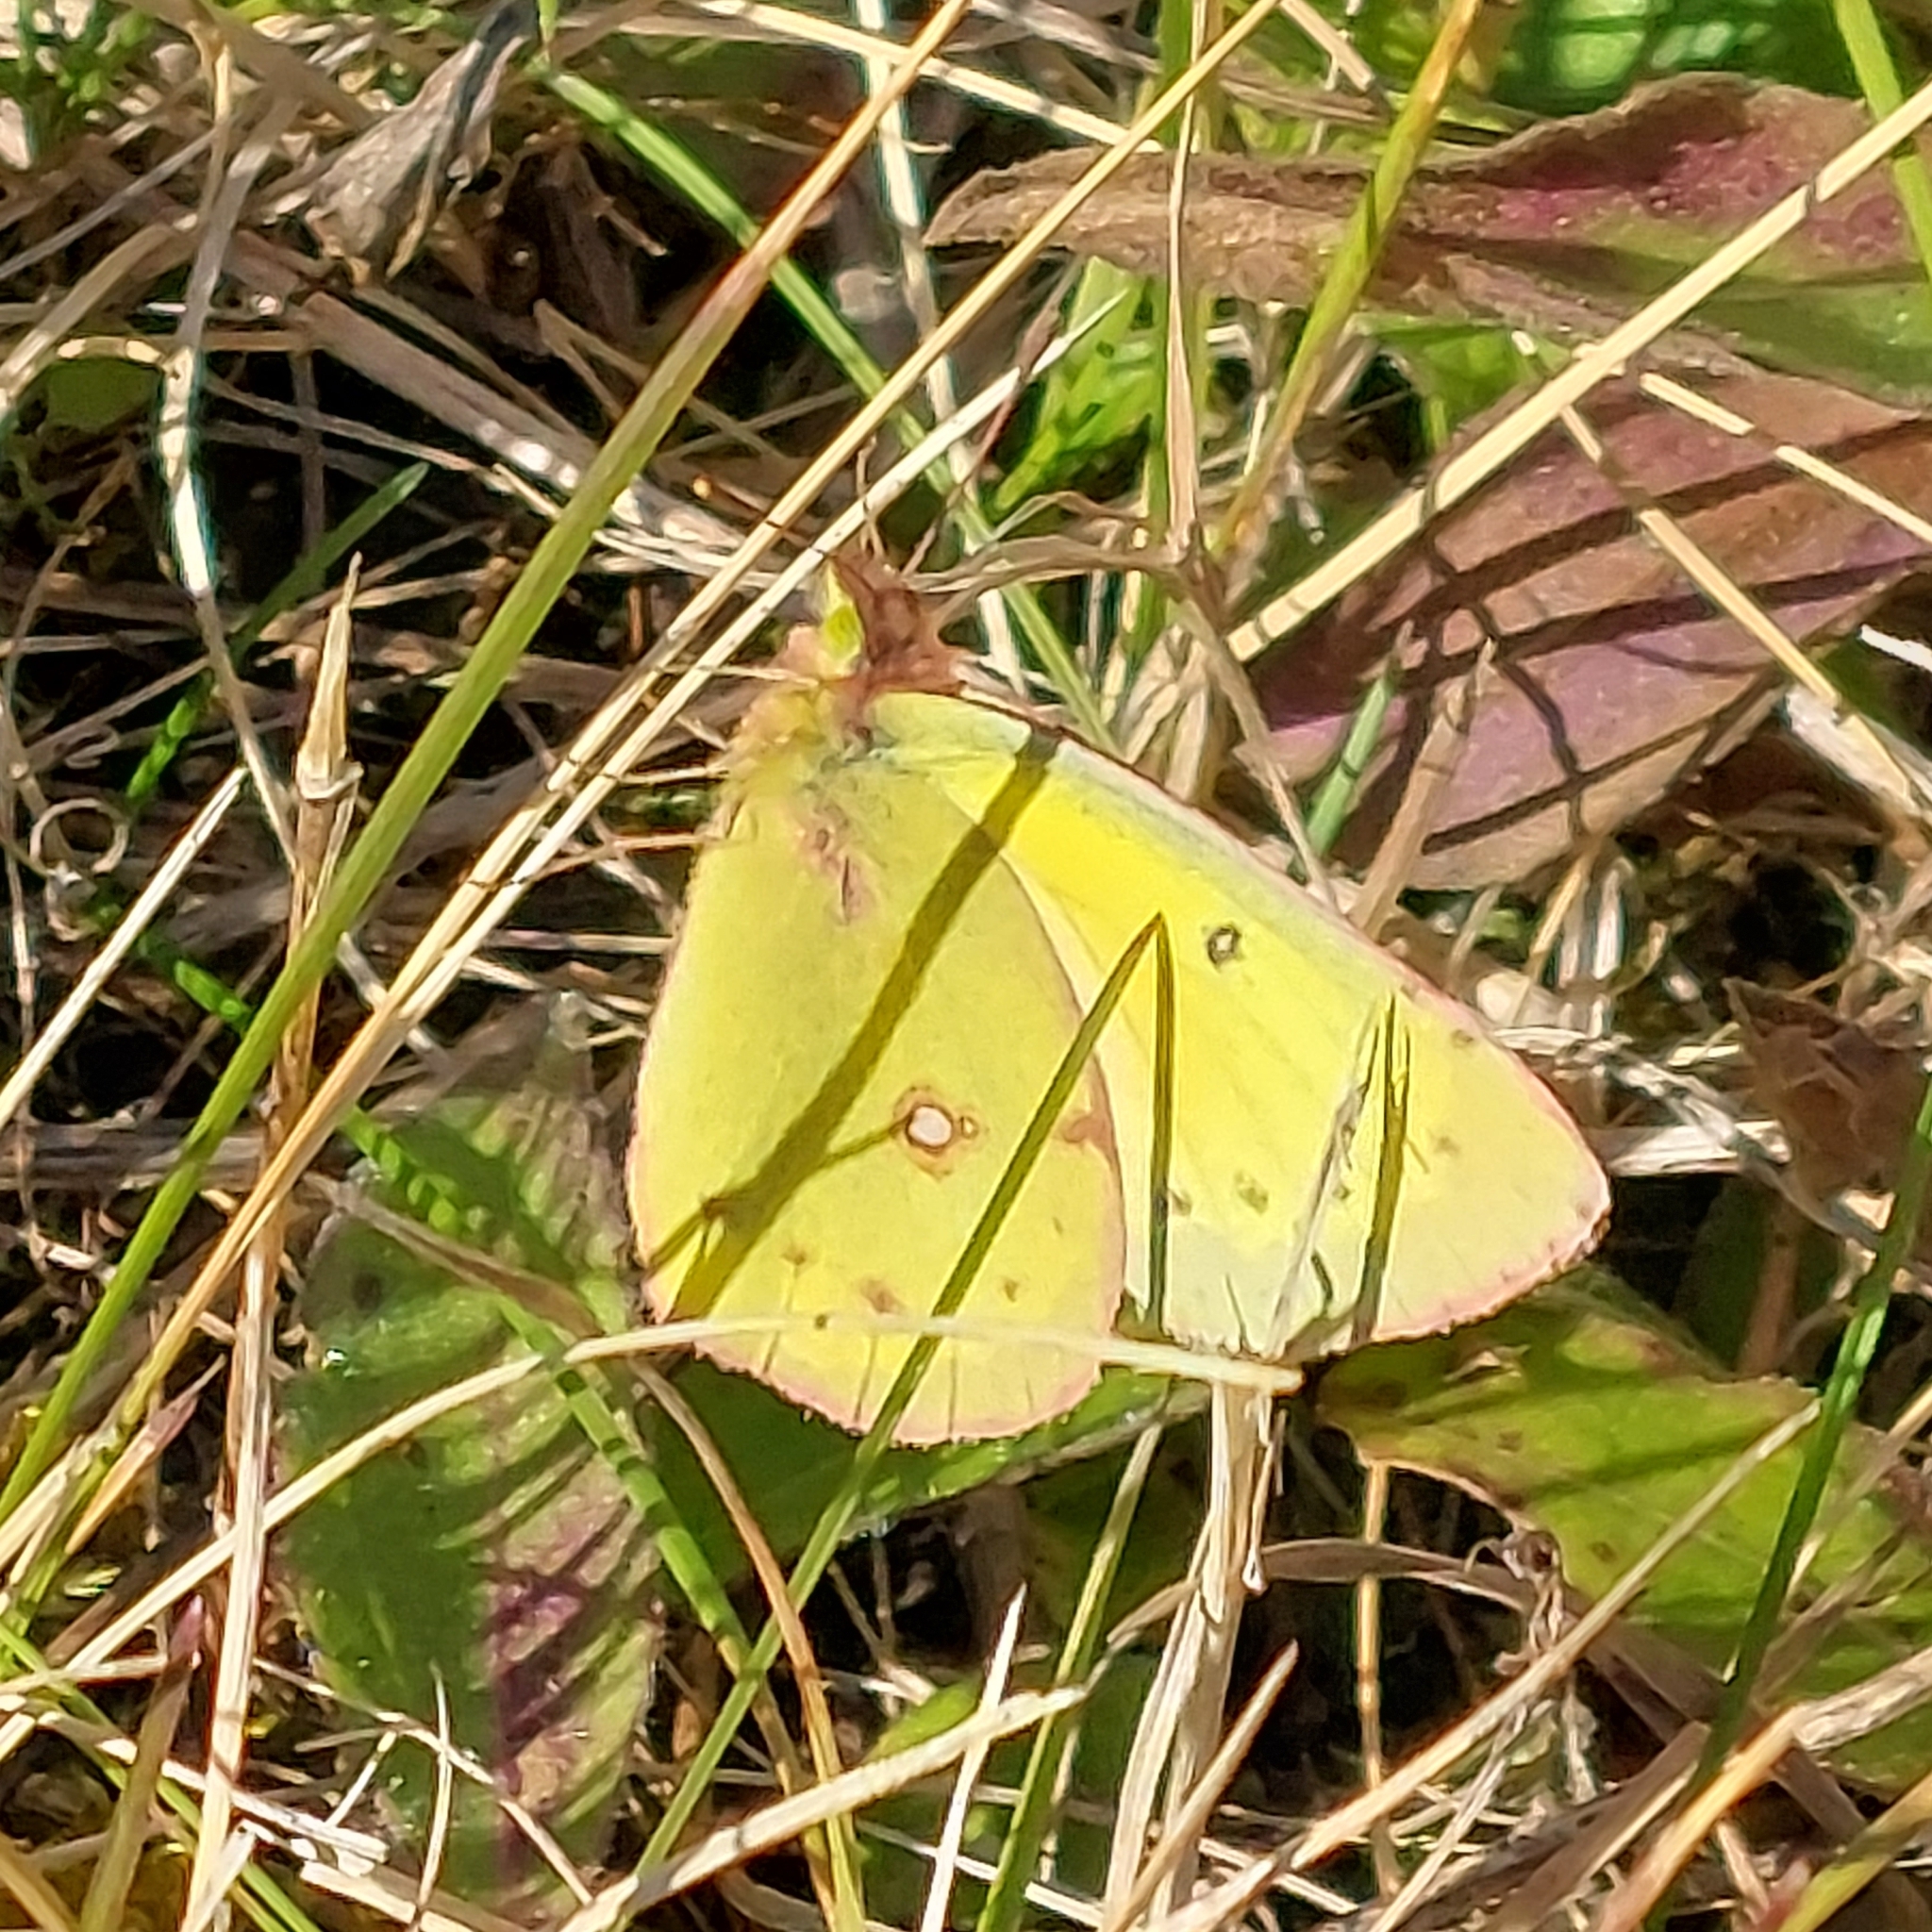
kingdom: Animalia
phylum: Arthropoda
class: Insecta
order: Lepidoptera
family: Pieridae
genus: Colias
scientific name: Colias philodice
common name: Clouded sulphur
